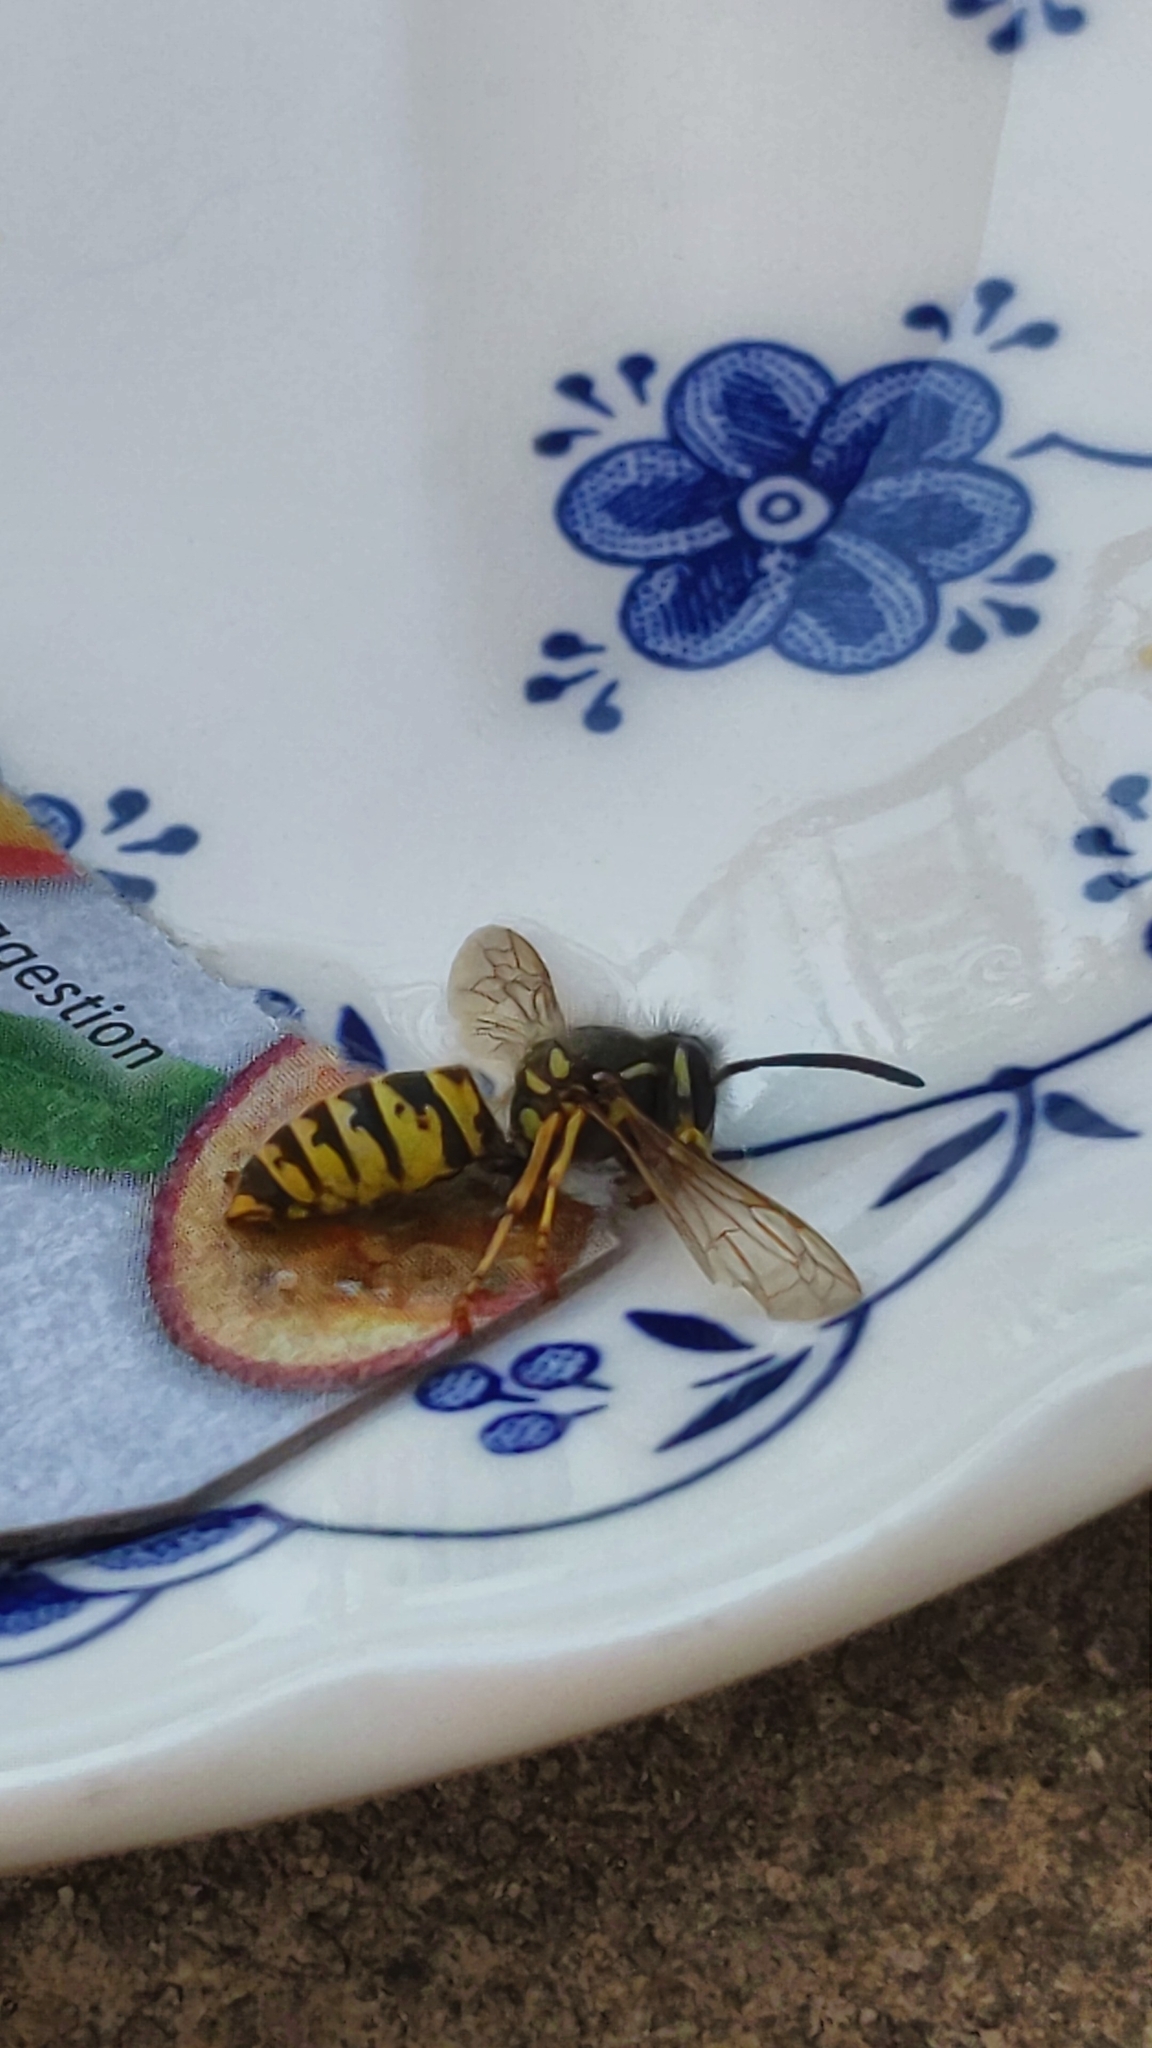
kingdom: Animalia
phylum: Arthropoda
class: Insecta
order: Hymenoptera
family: Vespidae
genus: Vespula
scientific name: Vespula vulgaris
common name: Common wasp
